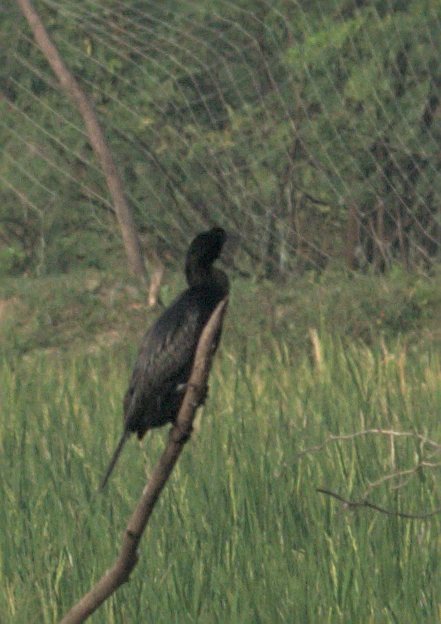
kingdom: Animalia
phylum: Chordata
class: Aves
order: Suliformes
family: Phalacrocoracidae
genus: Microcarbo
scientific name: Microcarbo niger
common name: Little cormorant
